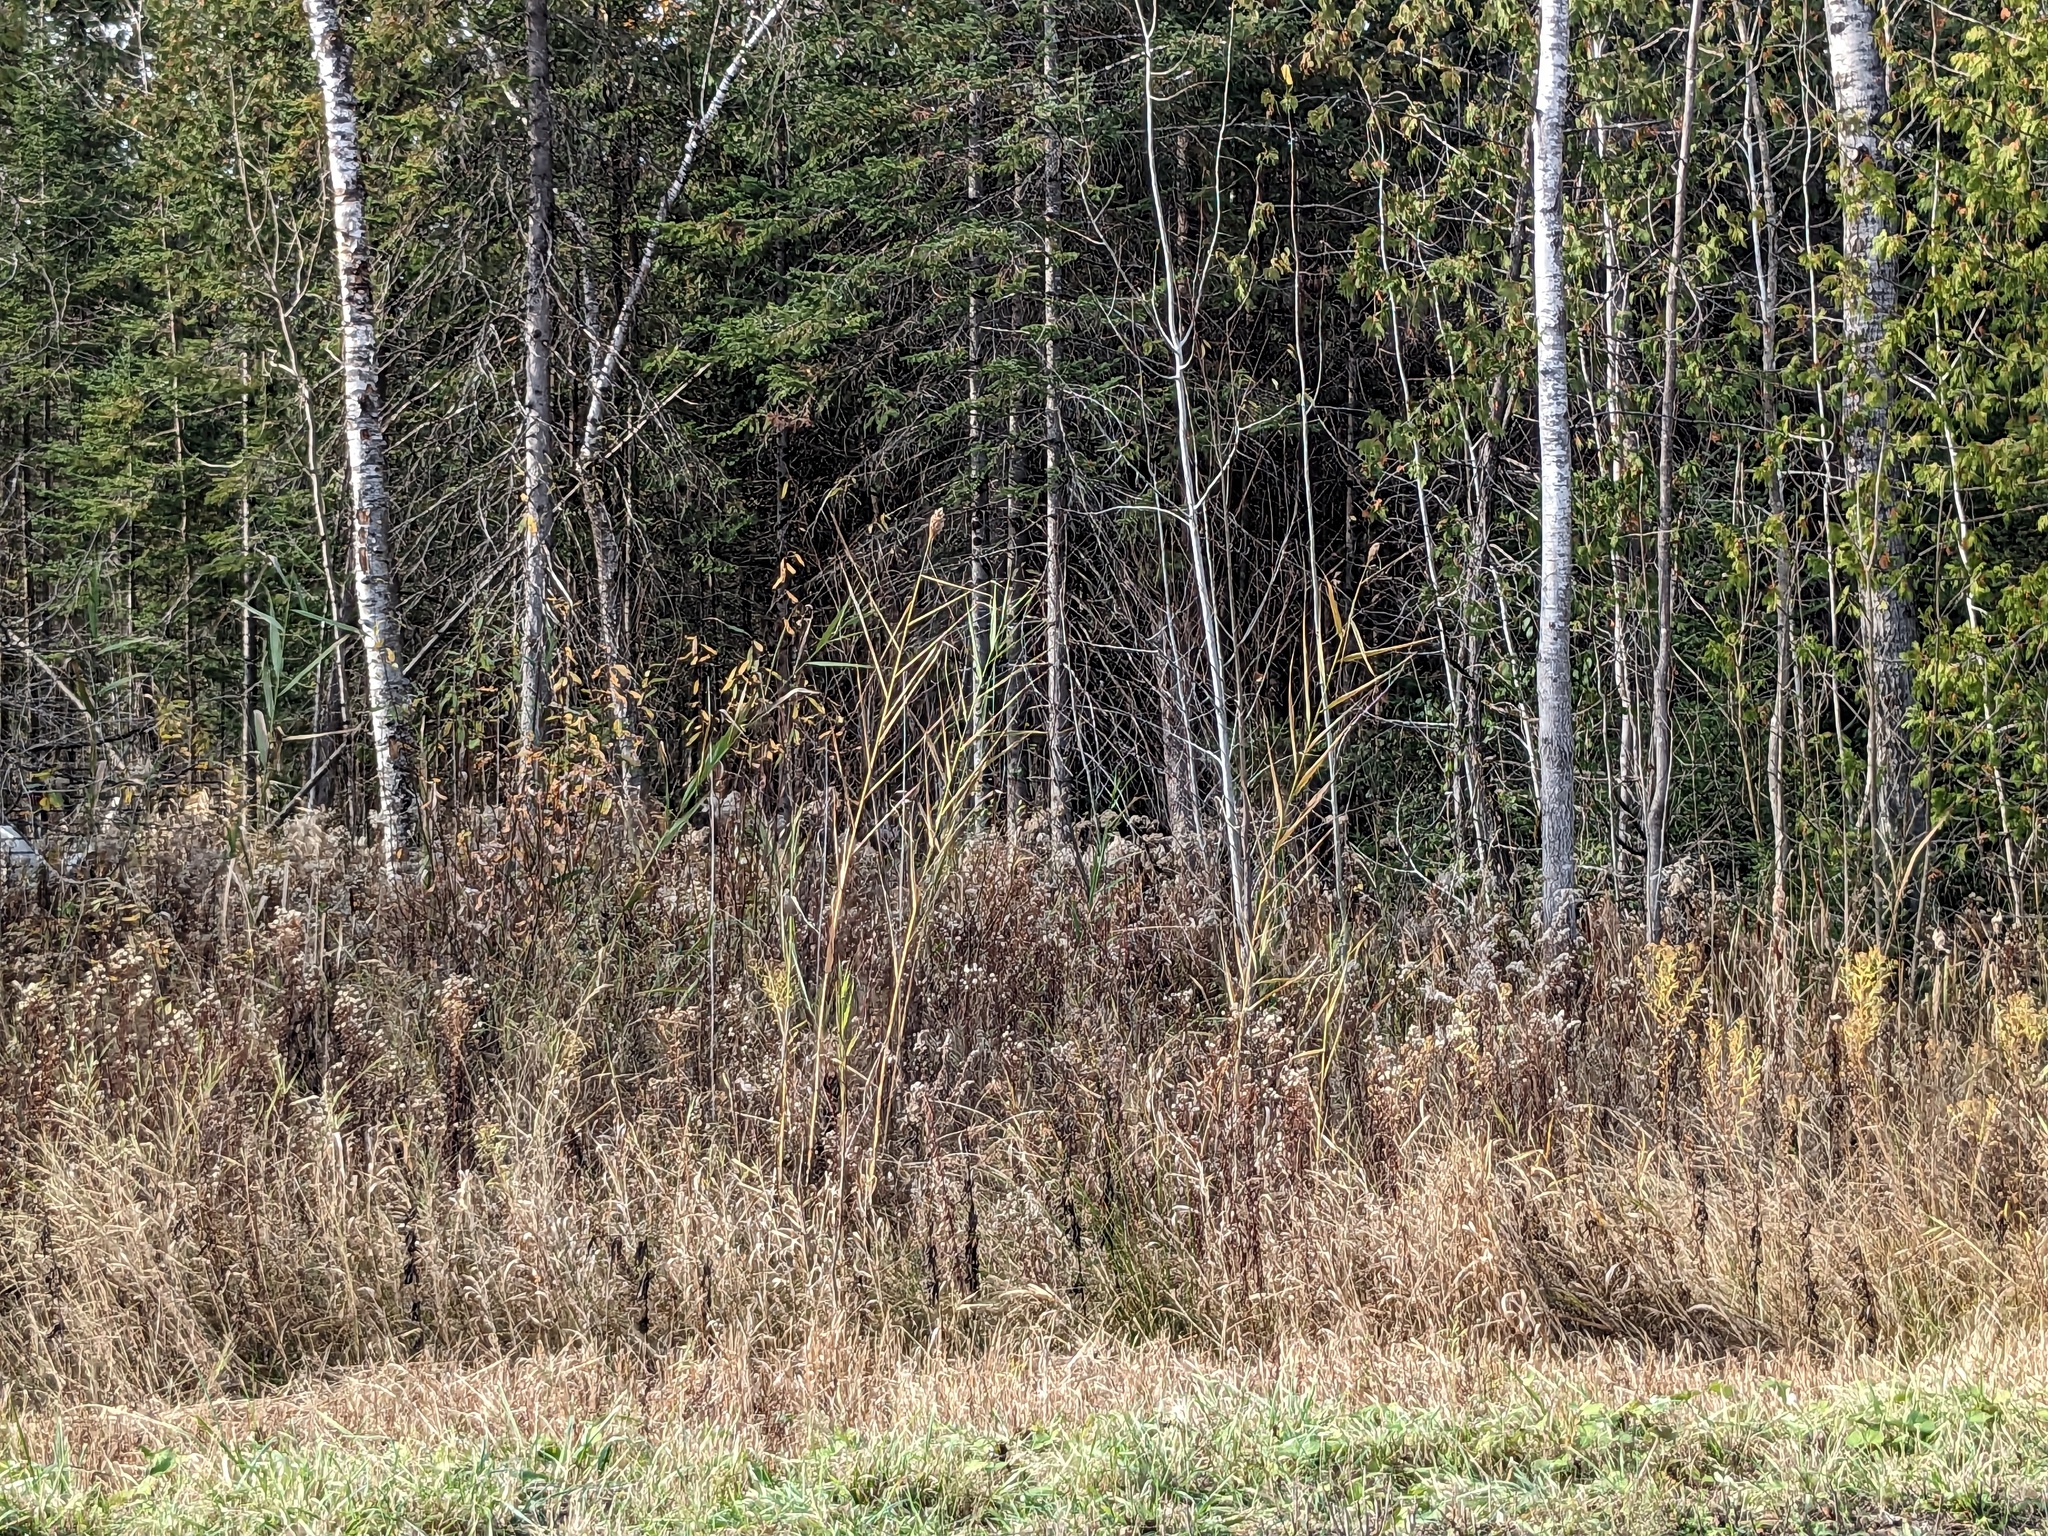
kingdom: Plantae
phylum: Tracheophyta
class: Liliopsida
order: Poales
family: Poaceae
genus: Phragmites
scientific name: Phragmites australis
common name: Common reed
